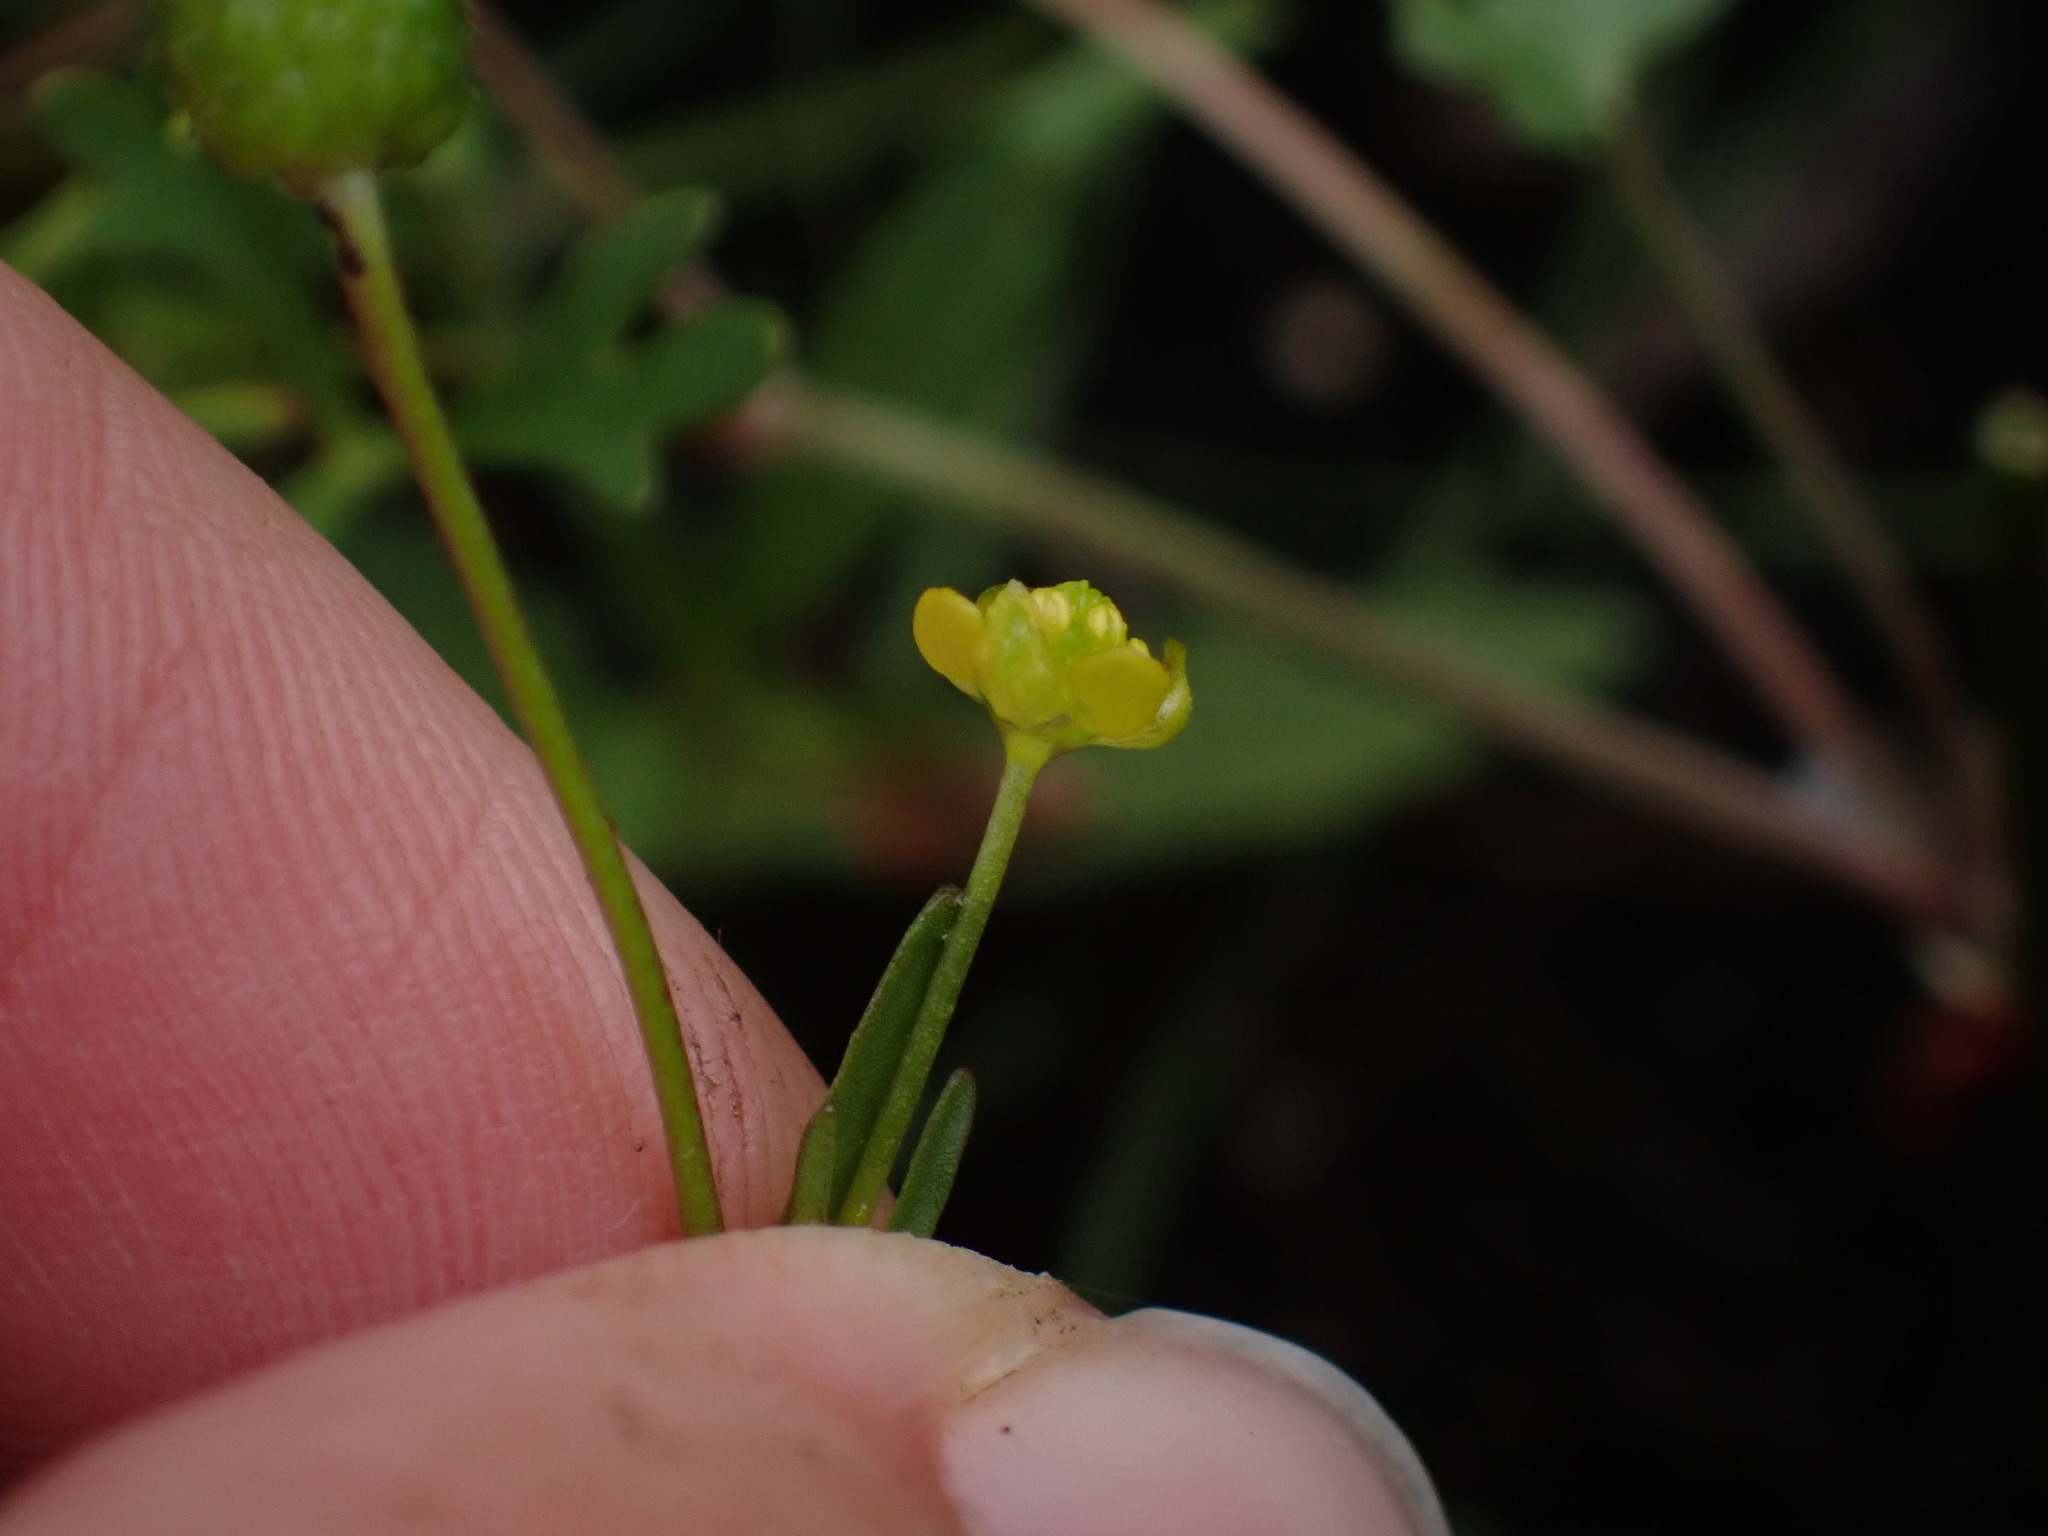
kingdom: Plantae
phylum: Tracheophyta
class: Magnoliopsida
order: Ranunculales
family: Ranunculaceae
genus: Ranunculus
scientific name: Ranunculus gmelinii
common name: Gmelin's buttercup
